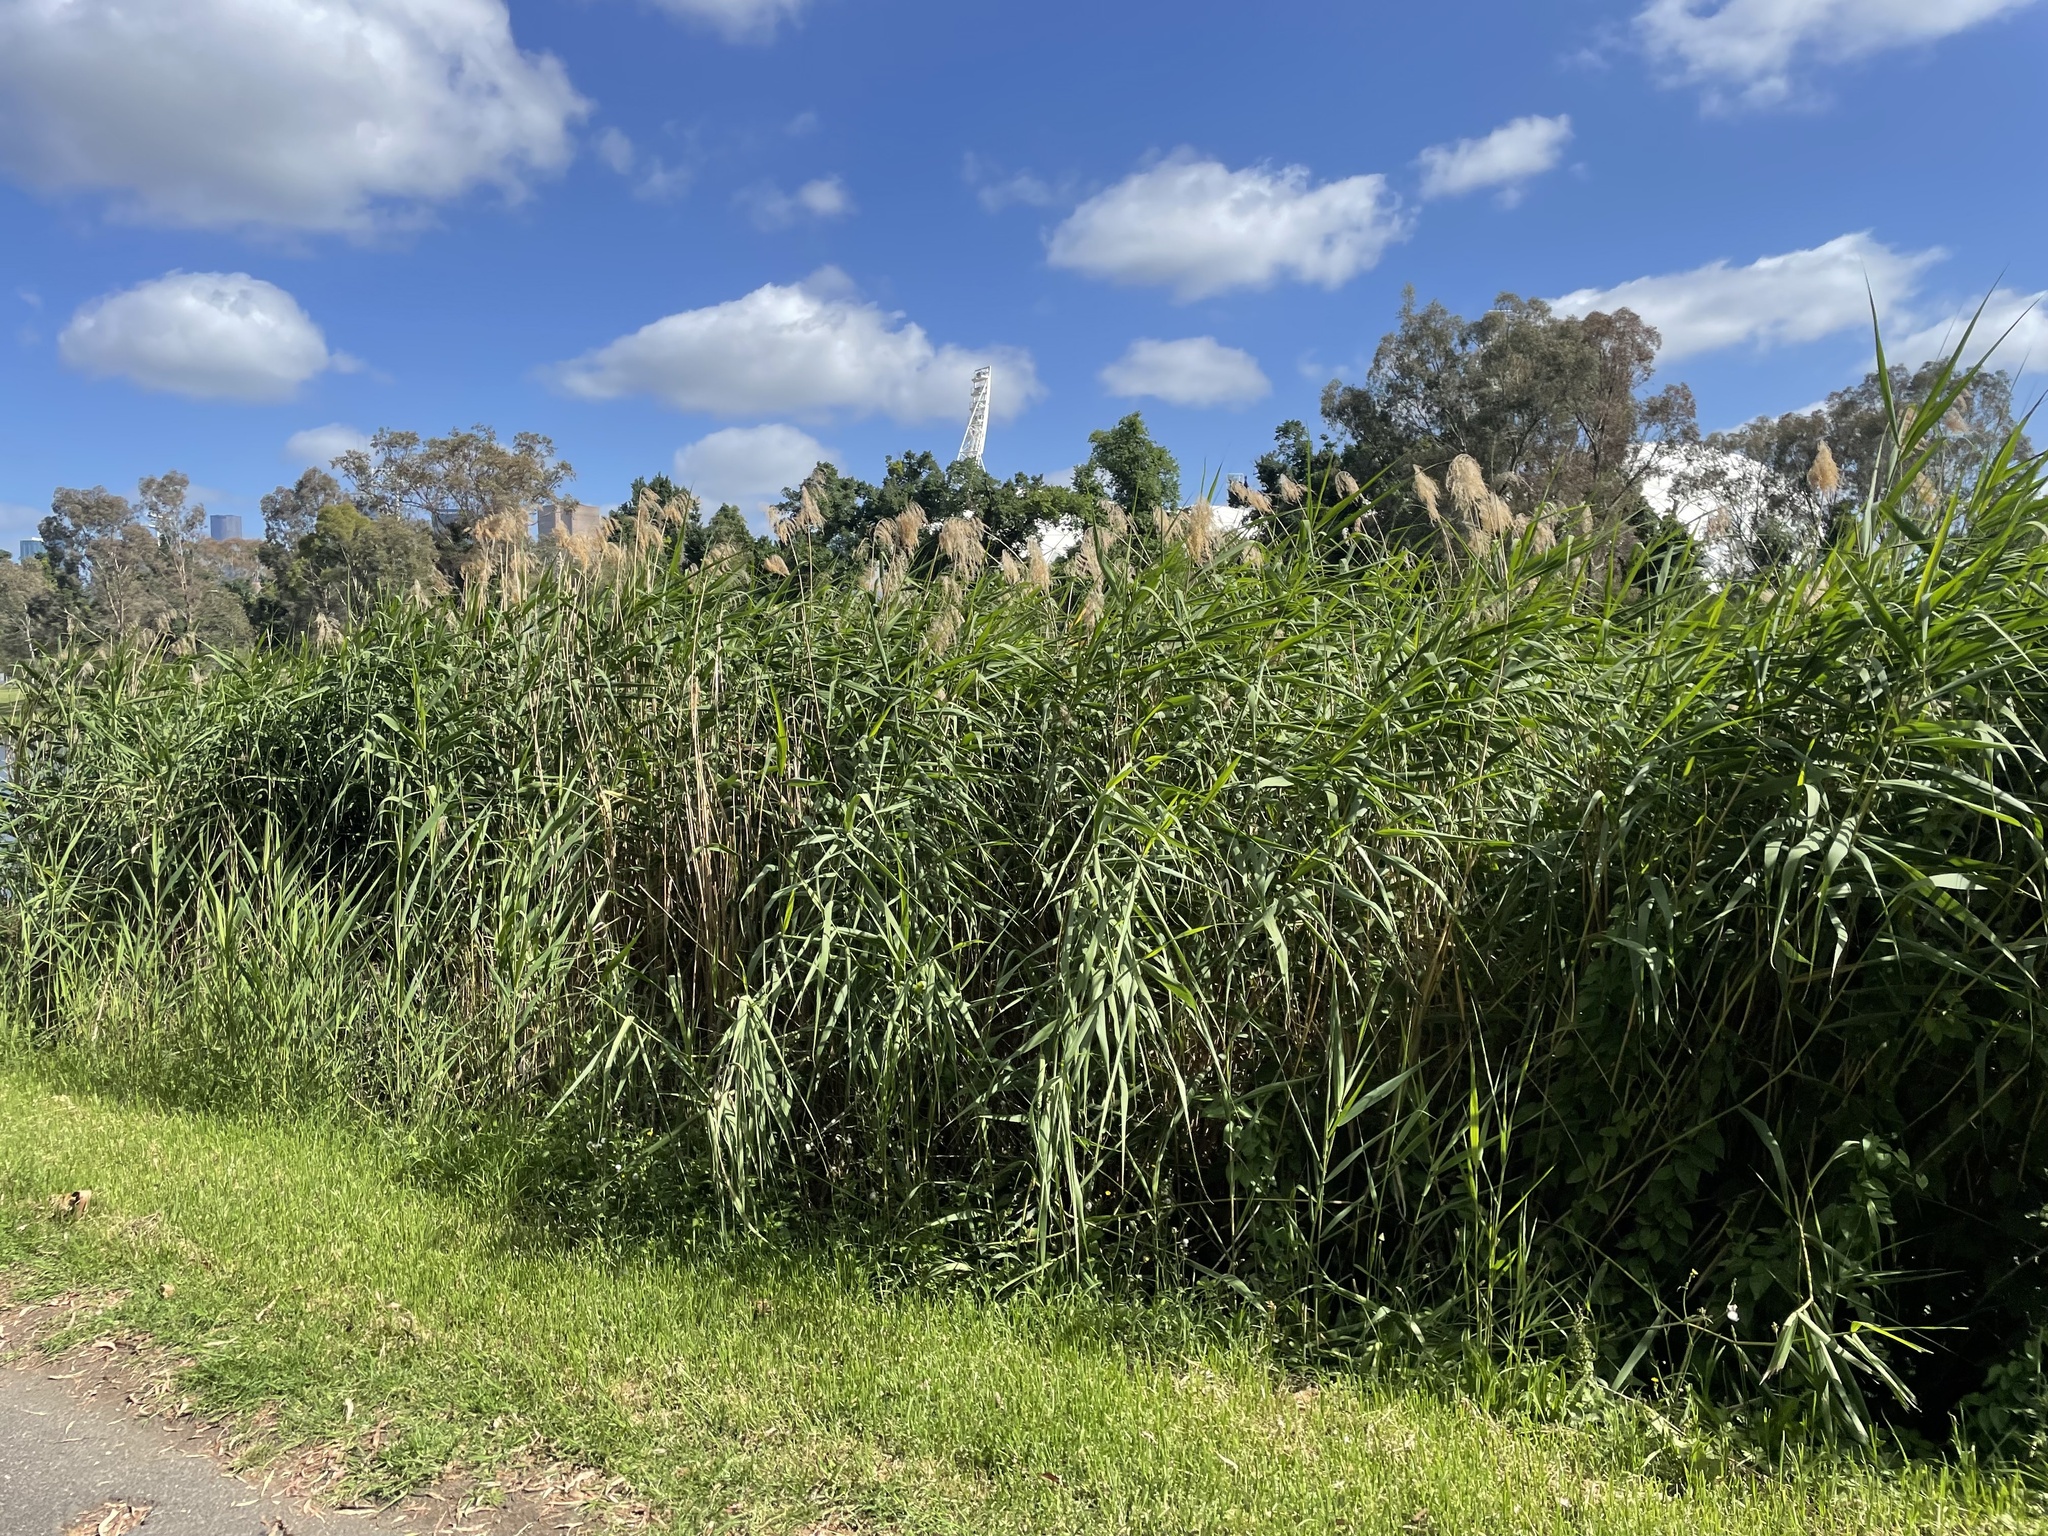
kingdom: Plantae
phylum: Tracheophyta
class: Liliopsida
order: Poales
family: Poaceae
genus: Phragmites
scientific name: Phragmites australis
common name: Common reed
